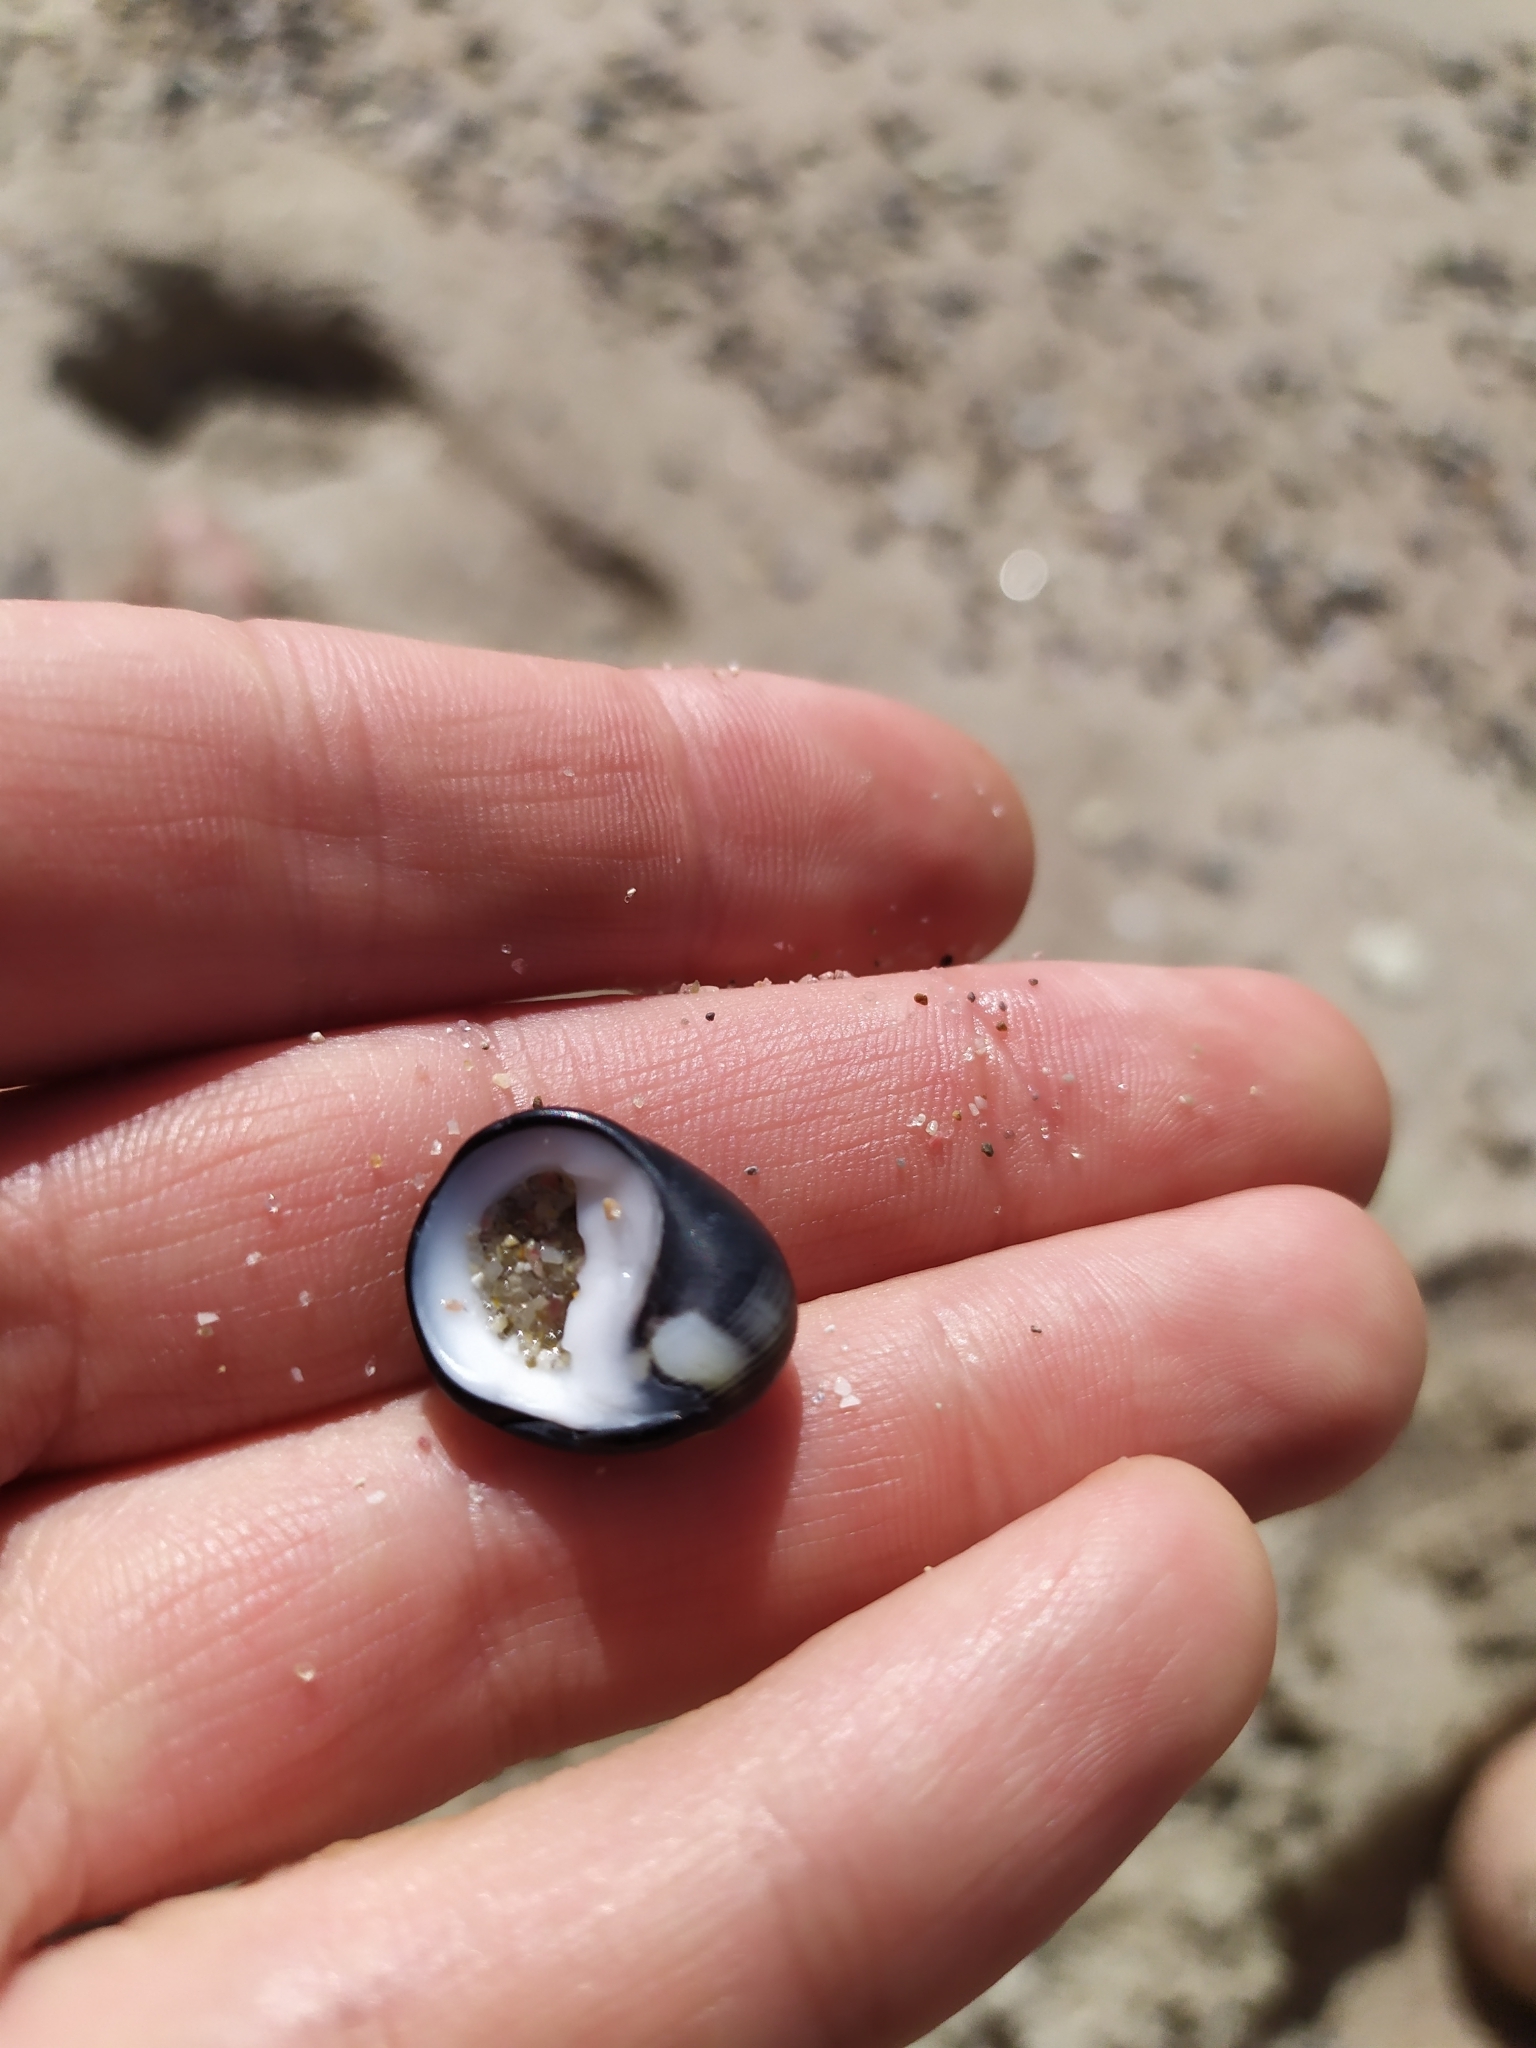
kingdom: Animalia
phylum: Mollusca
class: Gastropoda
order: Cycloneritida
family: Neritidae
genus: Nerita
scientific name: Nerita melanotragus
